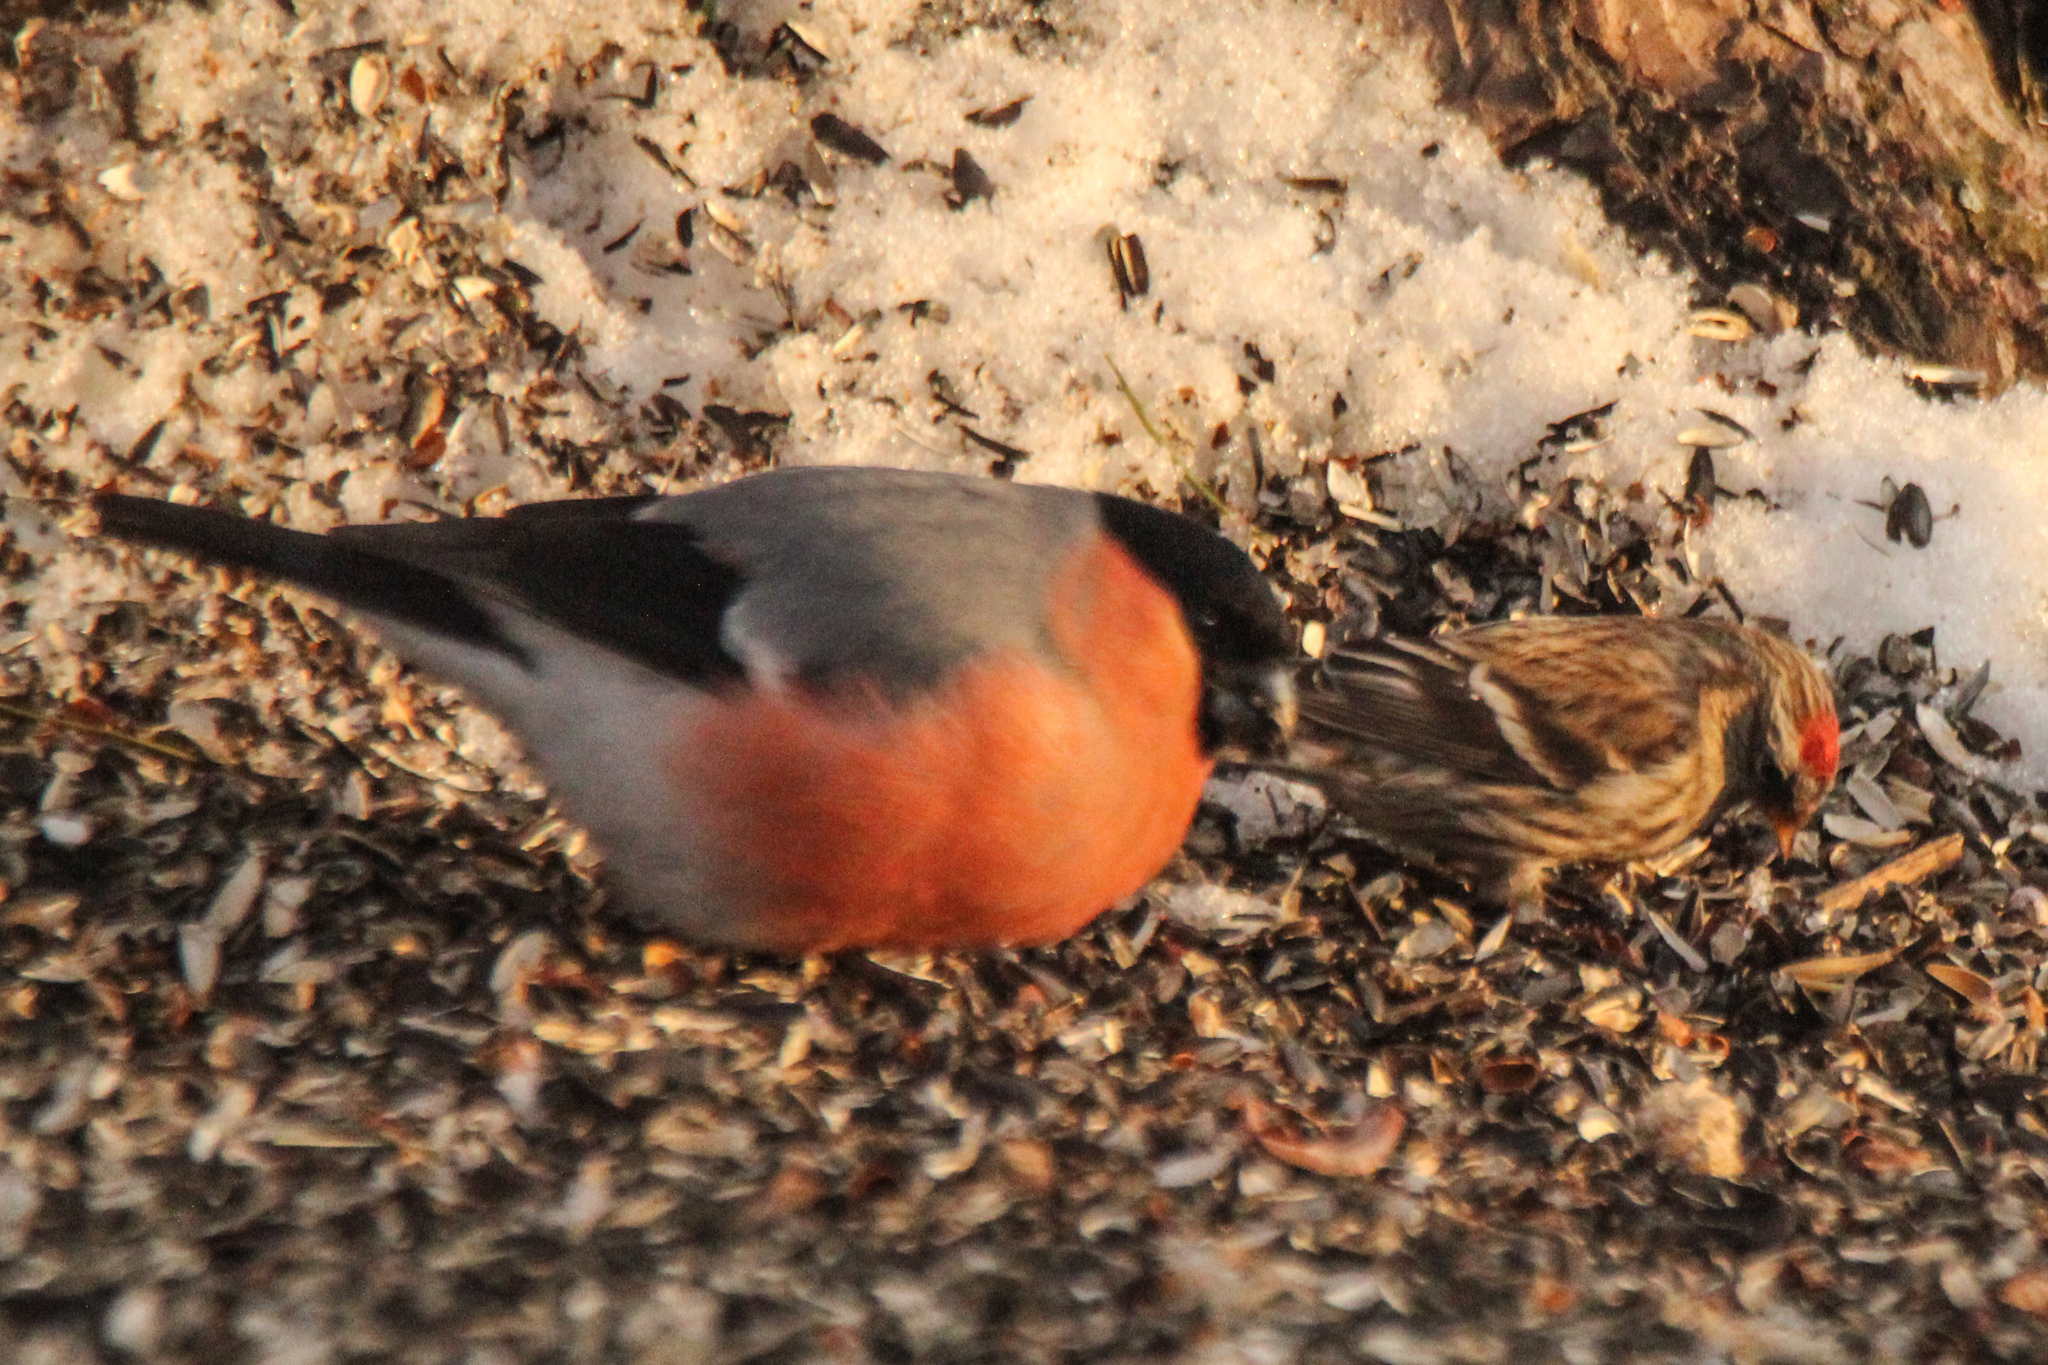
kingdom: Animalia
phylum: Chordata
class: Aves
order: Passeriformes
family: Fringillidae
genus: Pyrrhula
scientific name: Pyrrhula pyrrhula
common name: Eurasian bullfinch
